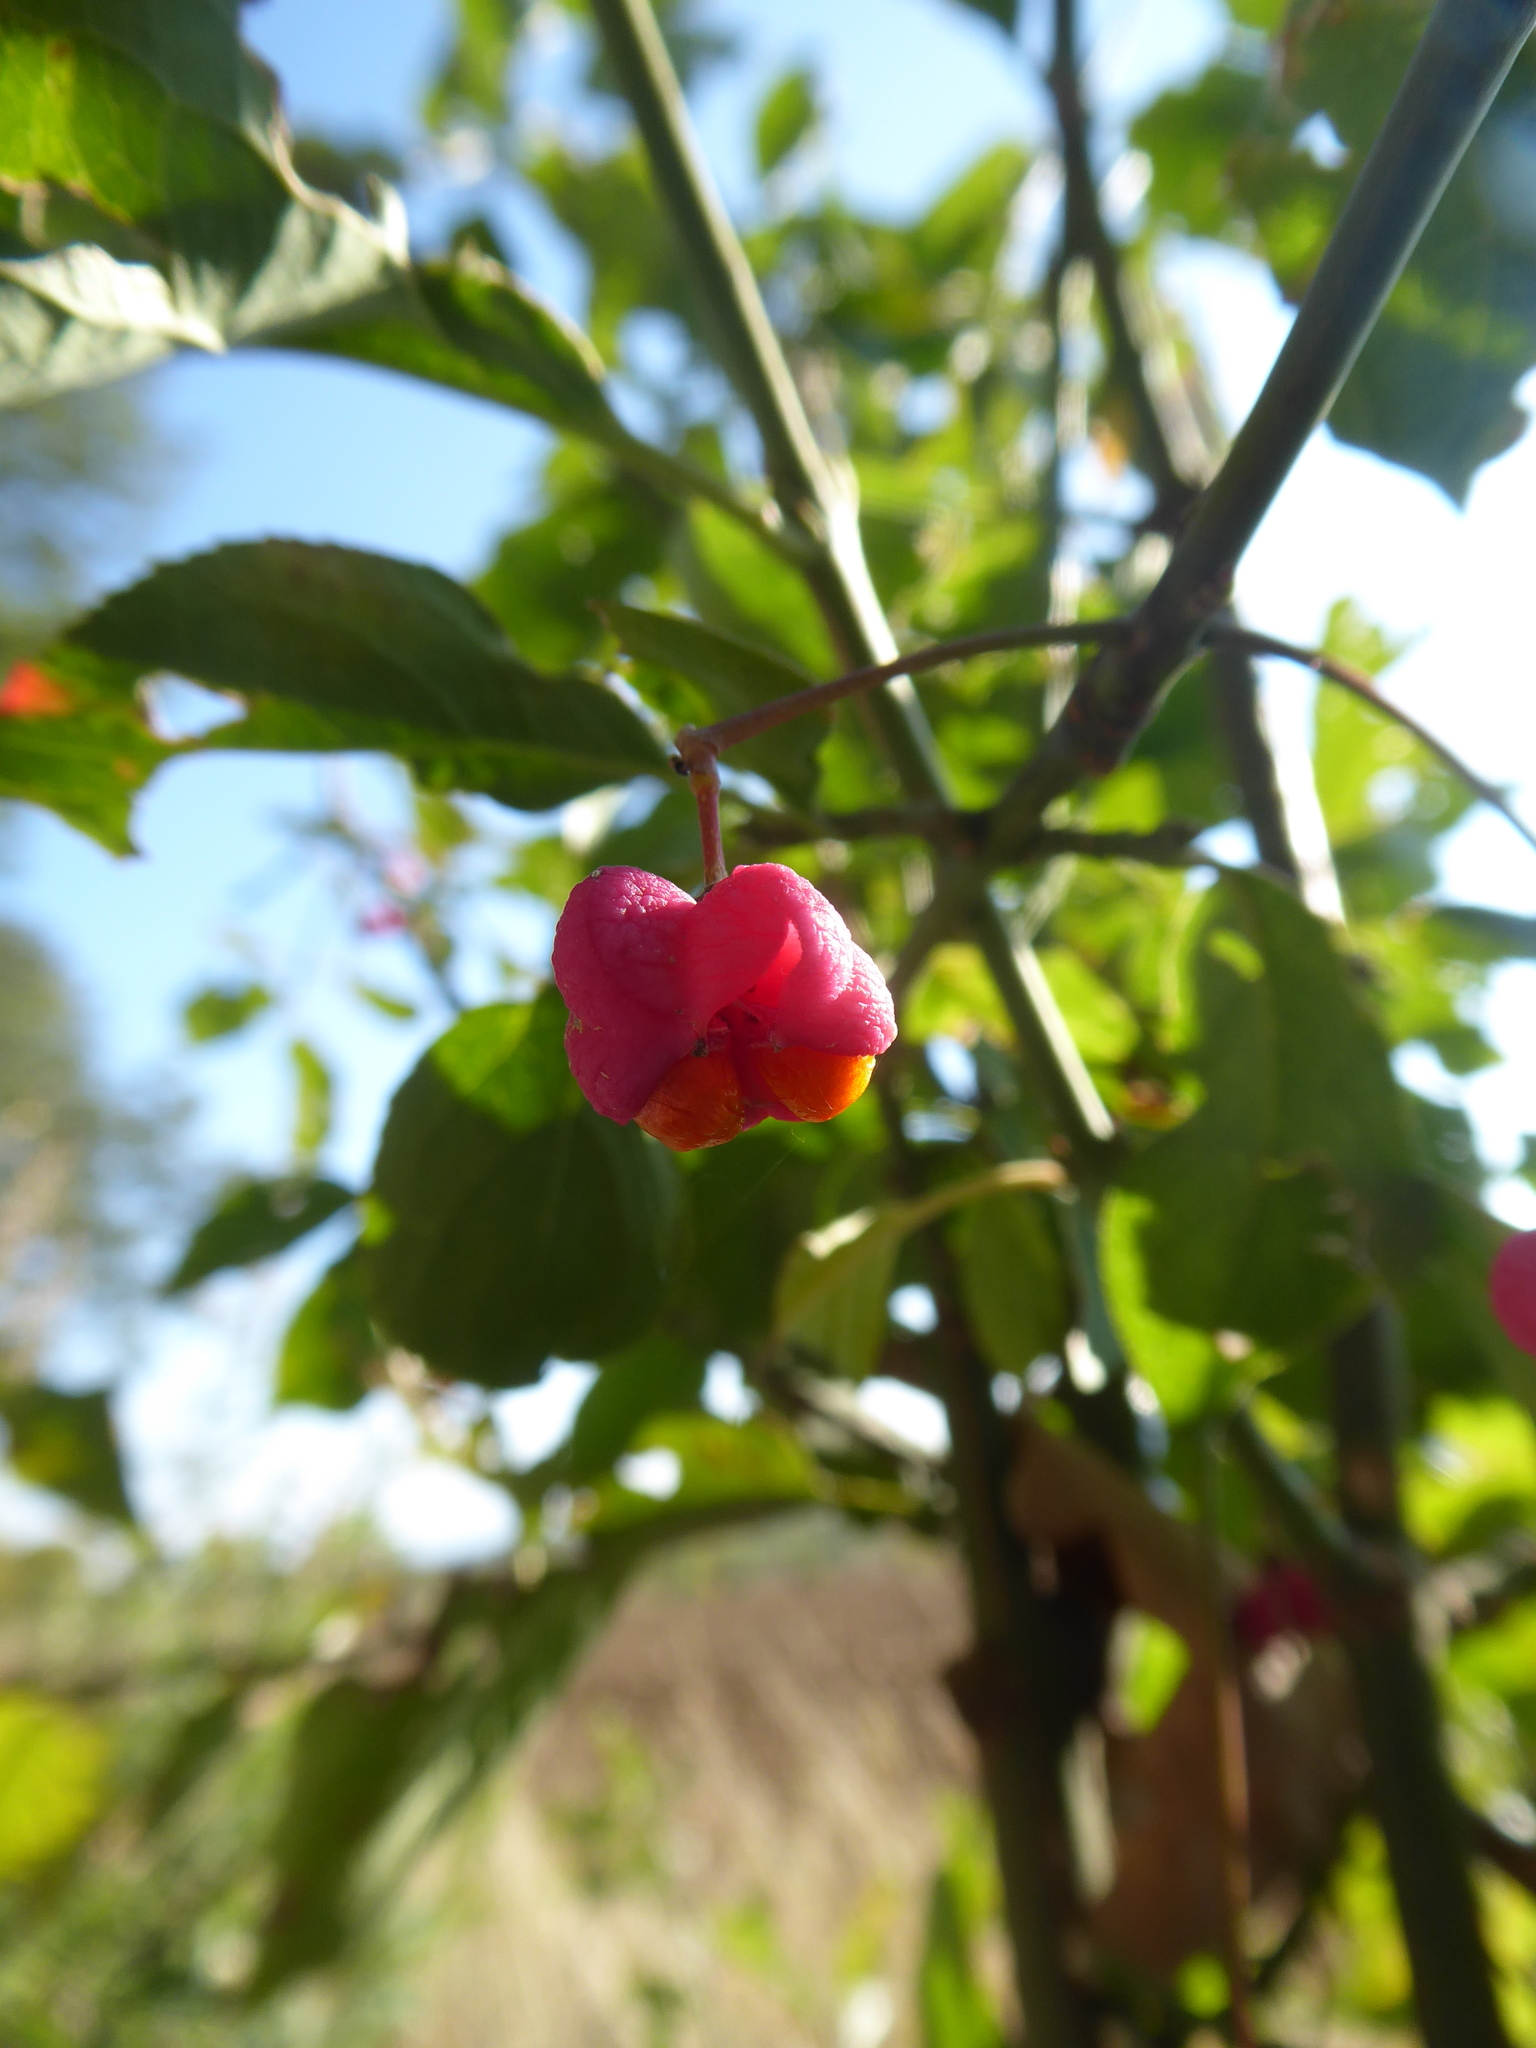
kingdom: Plantae
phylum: Tracheophyta
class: Magnoliopsida
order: Celastrales
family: Celastraceae
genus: Euonymus
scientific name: Euonymus europaeus
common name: Spindle
